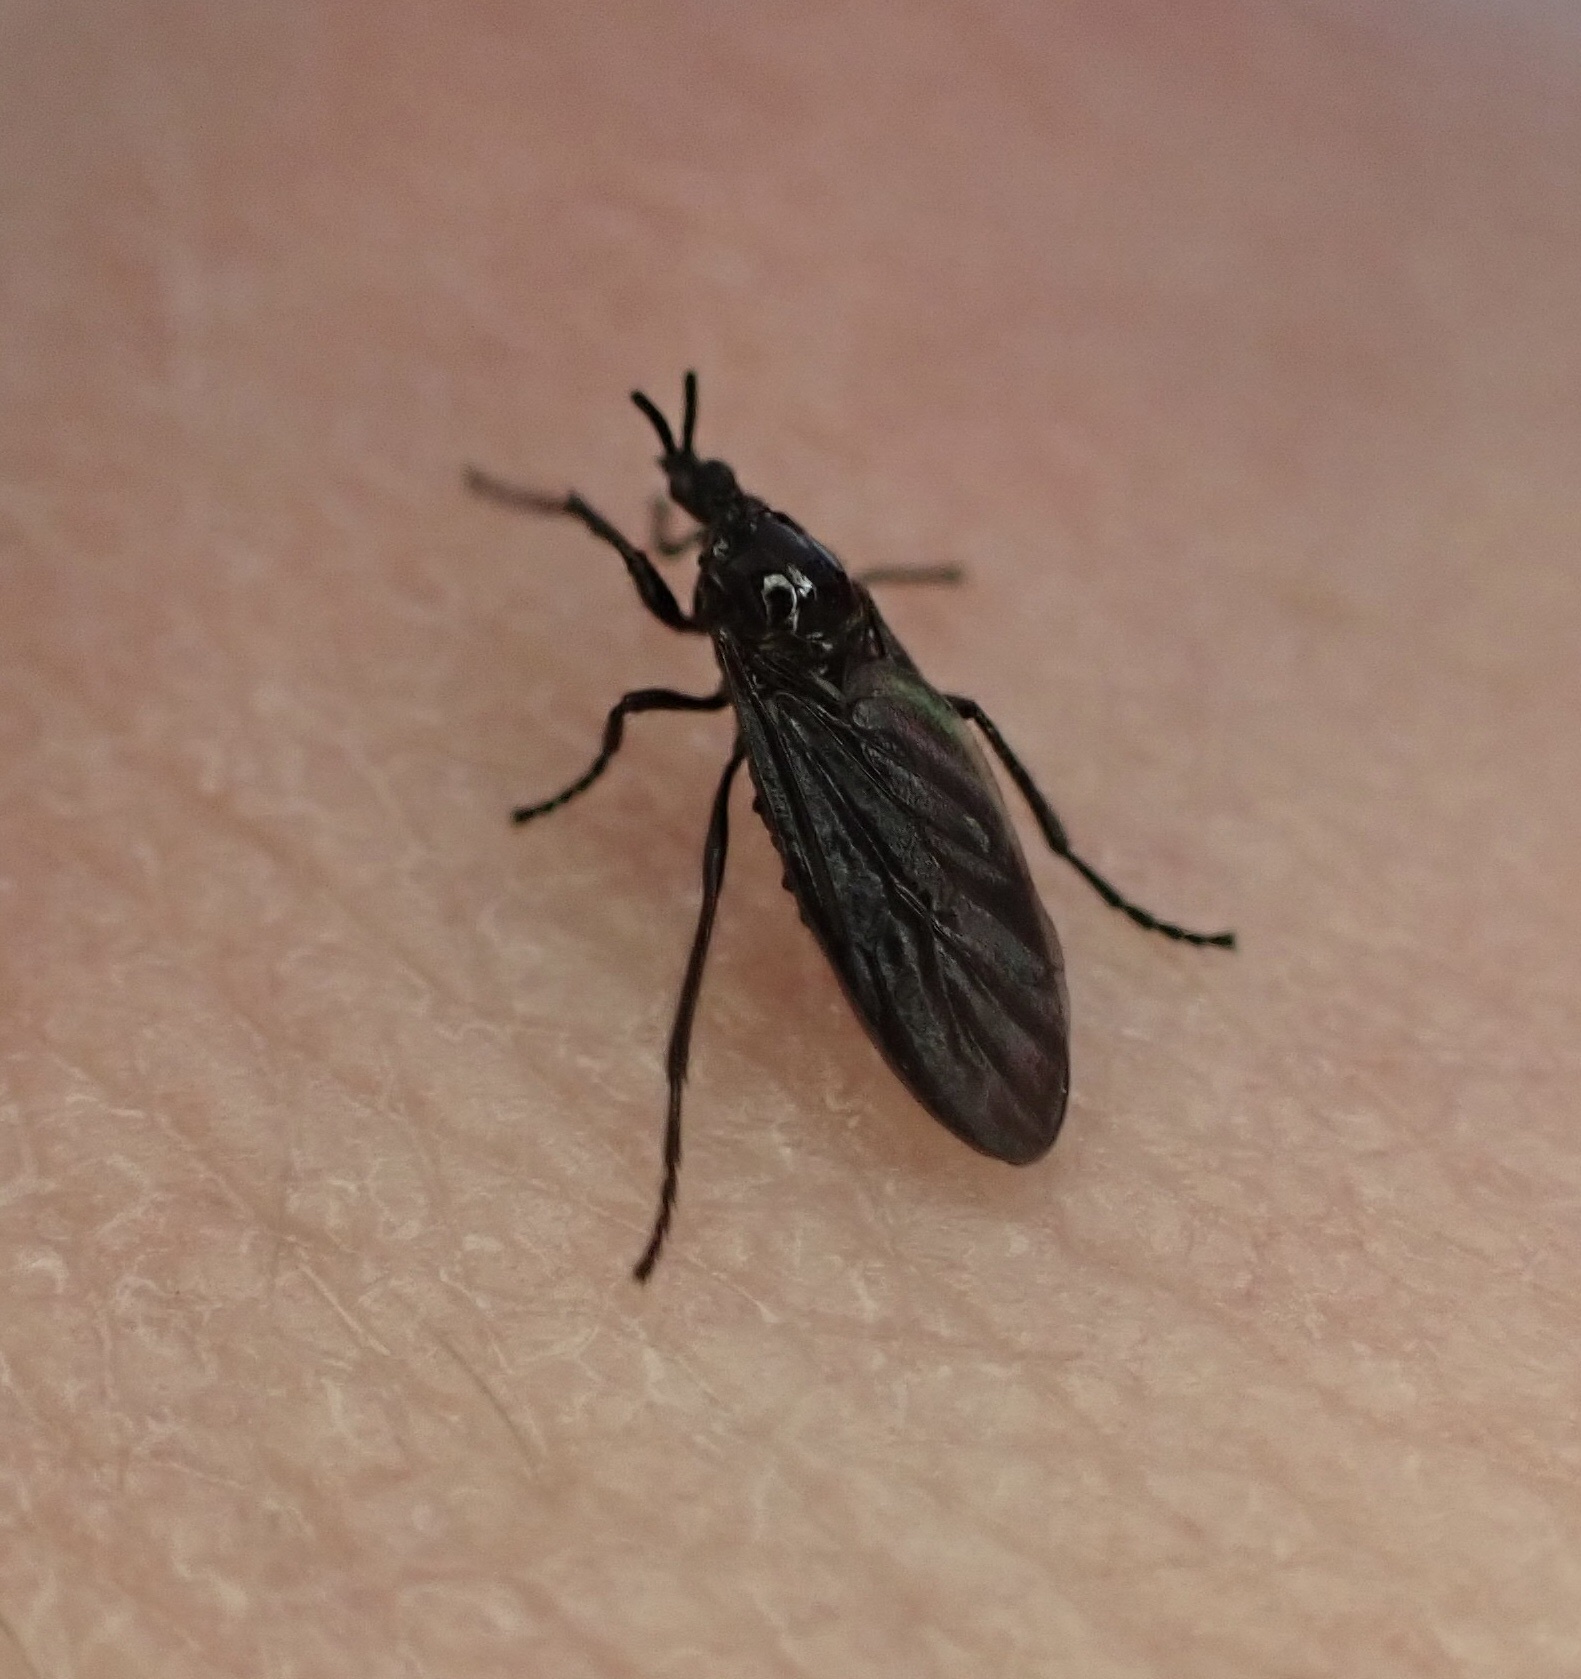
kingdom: Animalia
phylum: Arthropoda
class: Insecta
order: Diptera
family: Bibionidae
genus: Dilophus
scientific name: Dilophus orbatus
